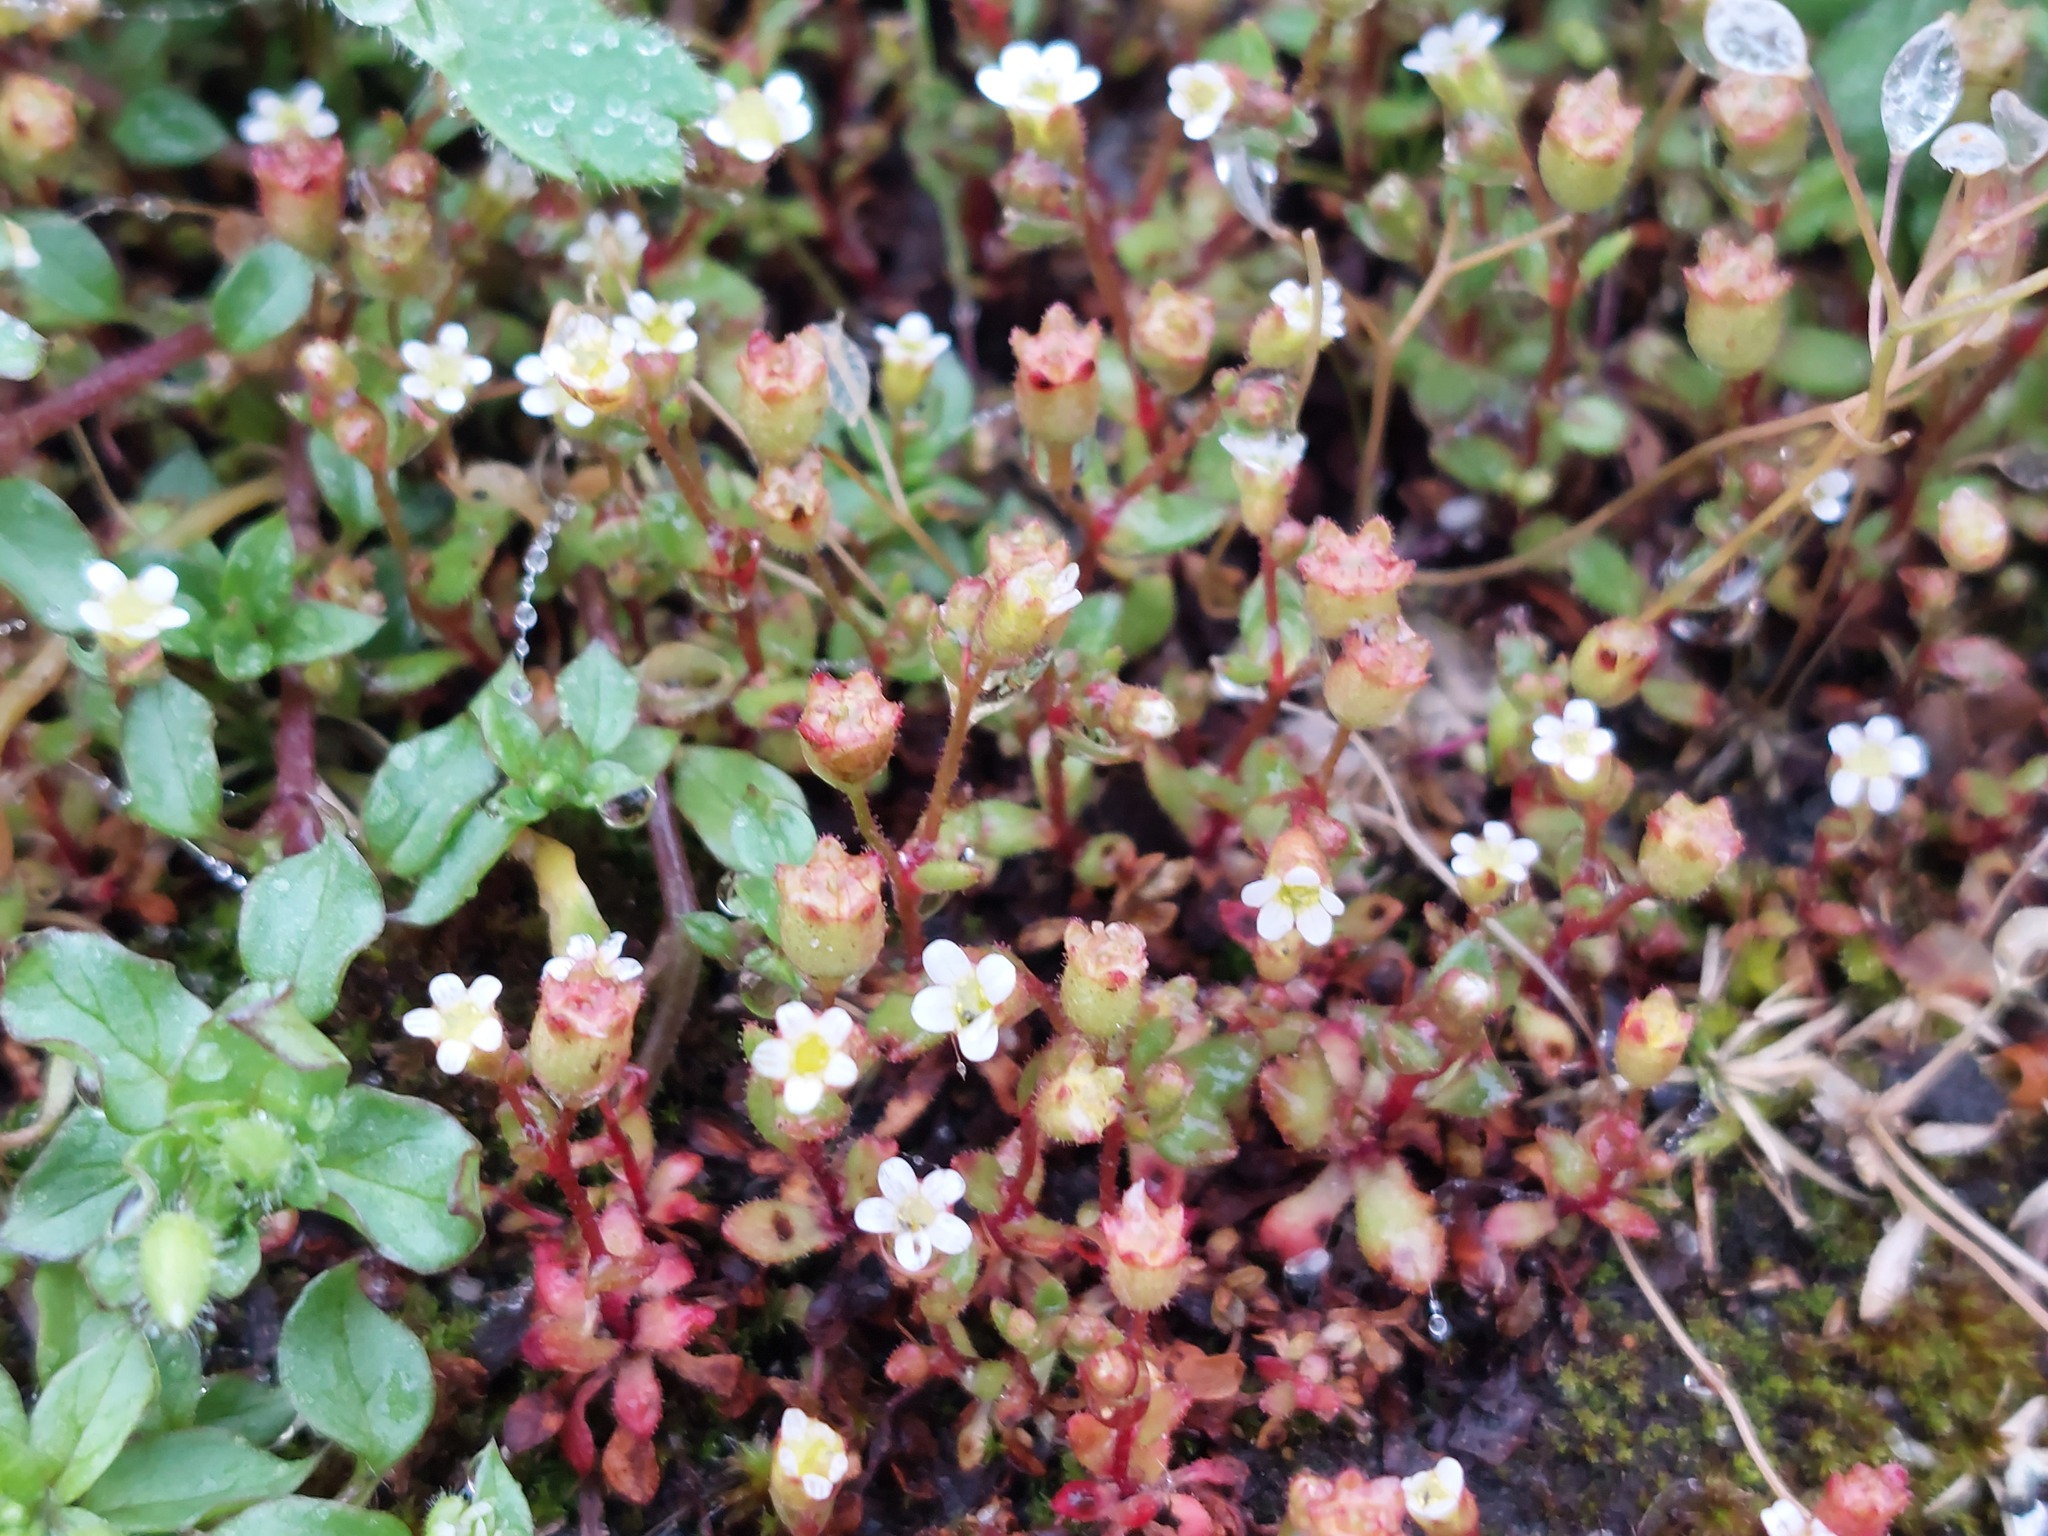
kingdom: Plantae
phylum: Tracheophyta
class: Magnoliopsida
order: Saxifragales
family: Saxifragaceae
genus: Saxifraga
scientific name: Saxifraga tridactylites
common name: Rue-leaved saxifrage
